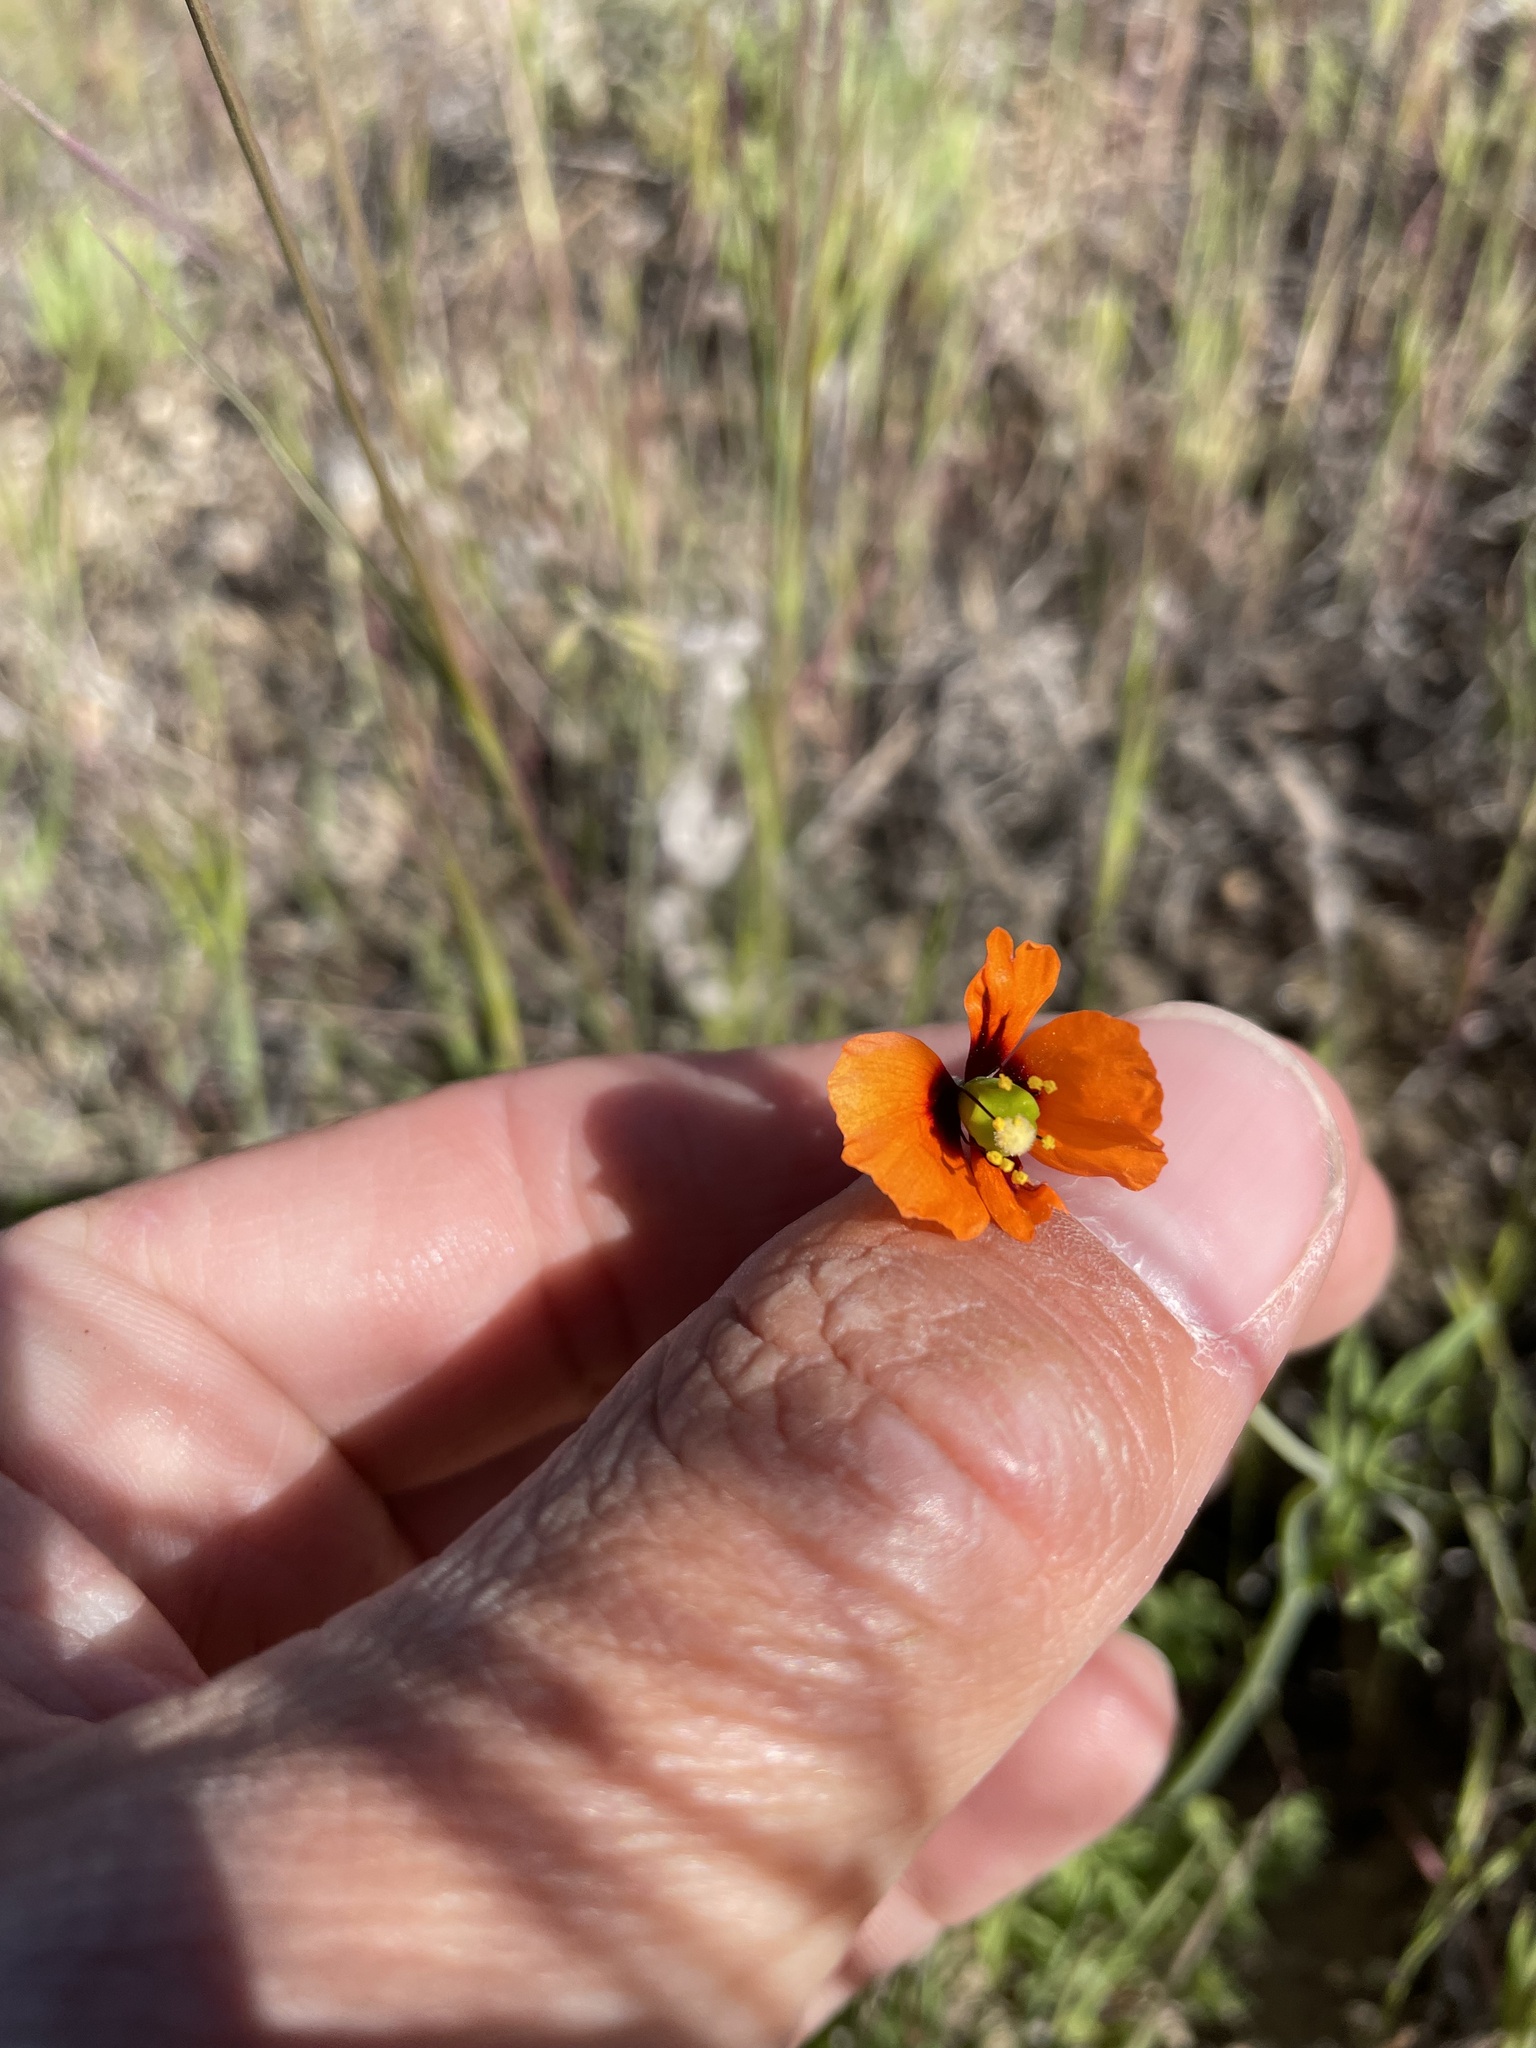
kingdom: Plantae
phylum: Tracheophyta
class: Magnoliopsida
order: Ranunculales
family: Papaveraceae
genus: Stylomecon
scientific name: Stylomecon heterophylla
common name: Flaming-poppy
